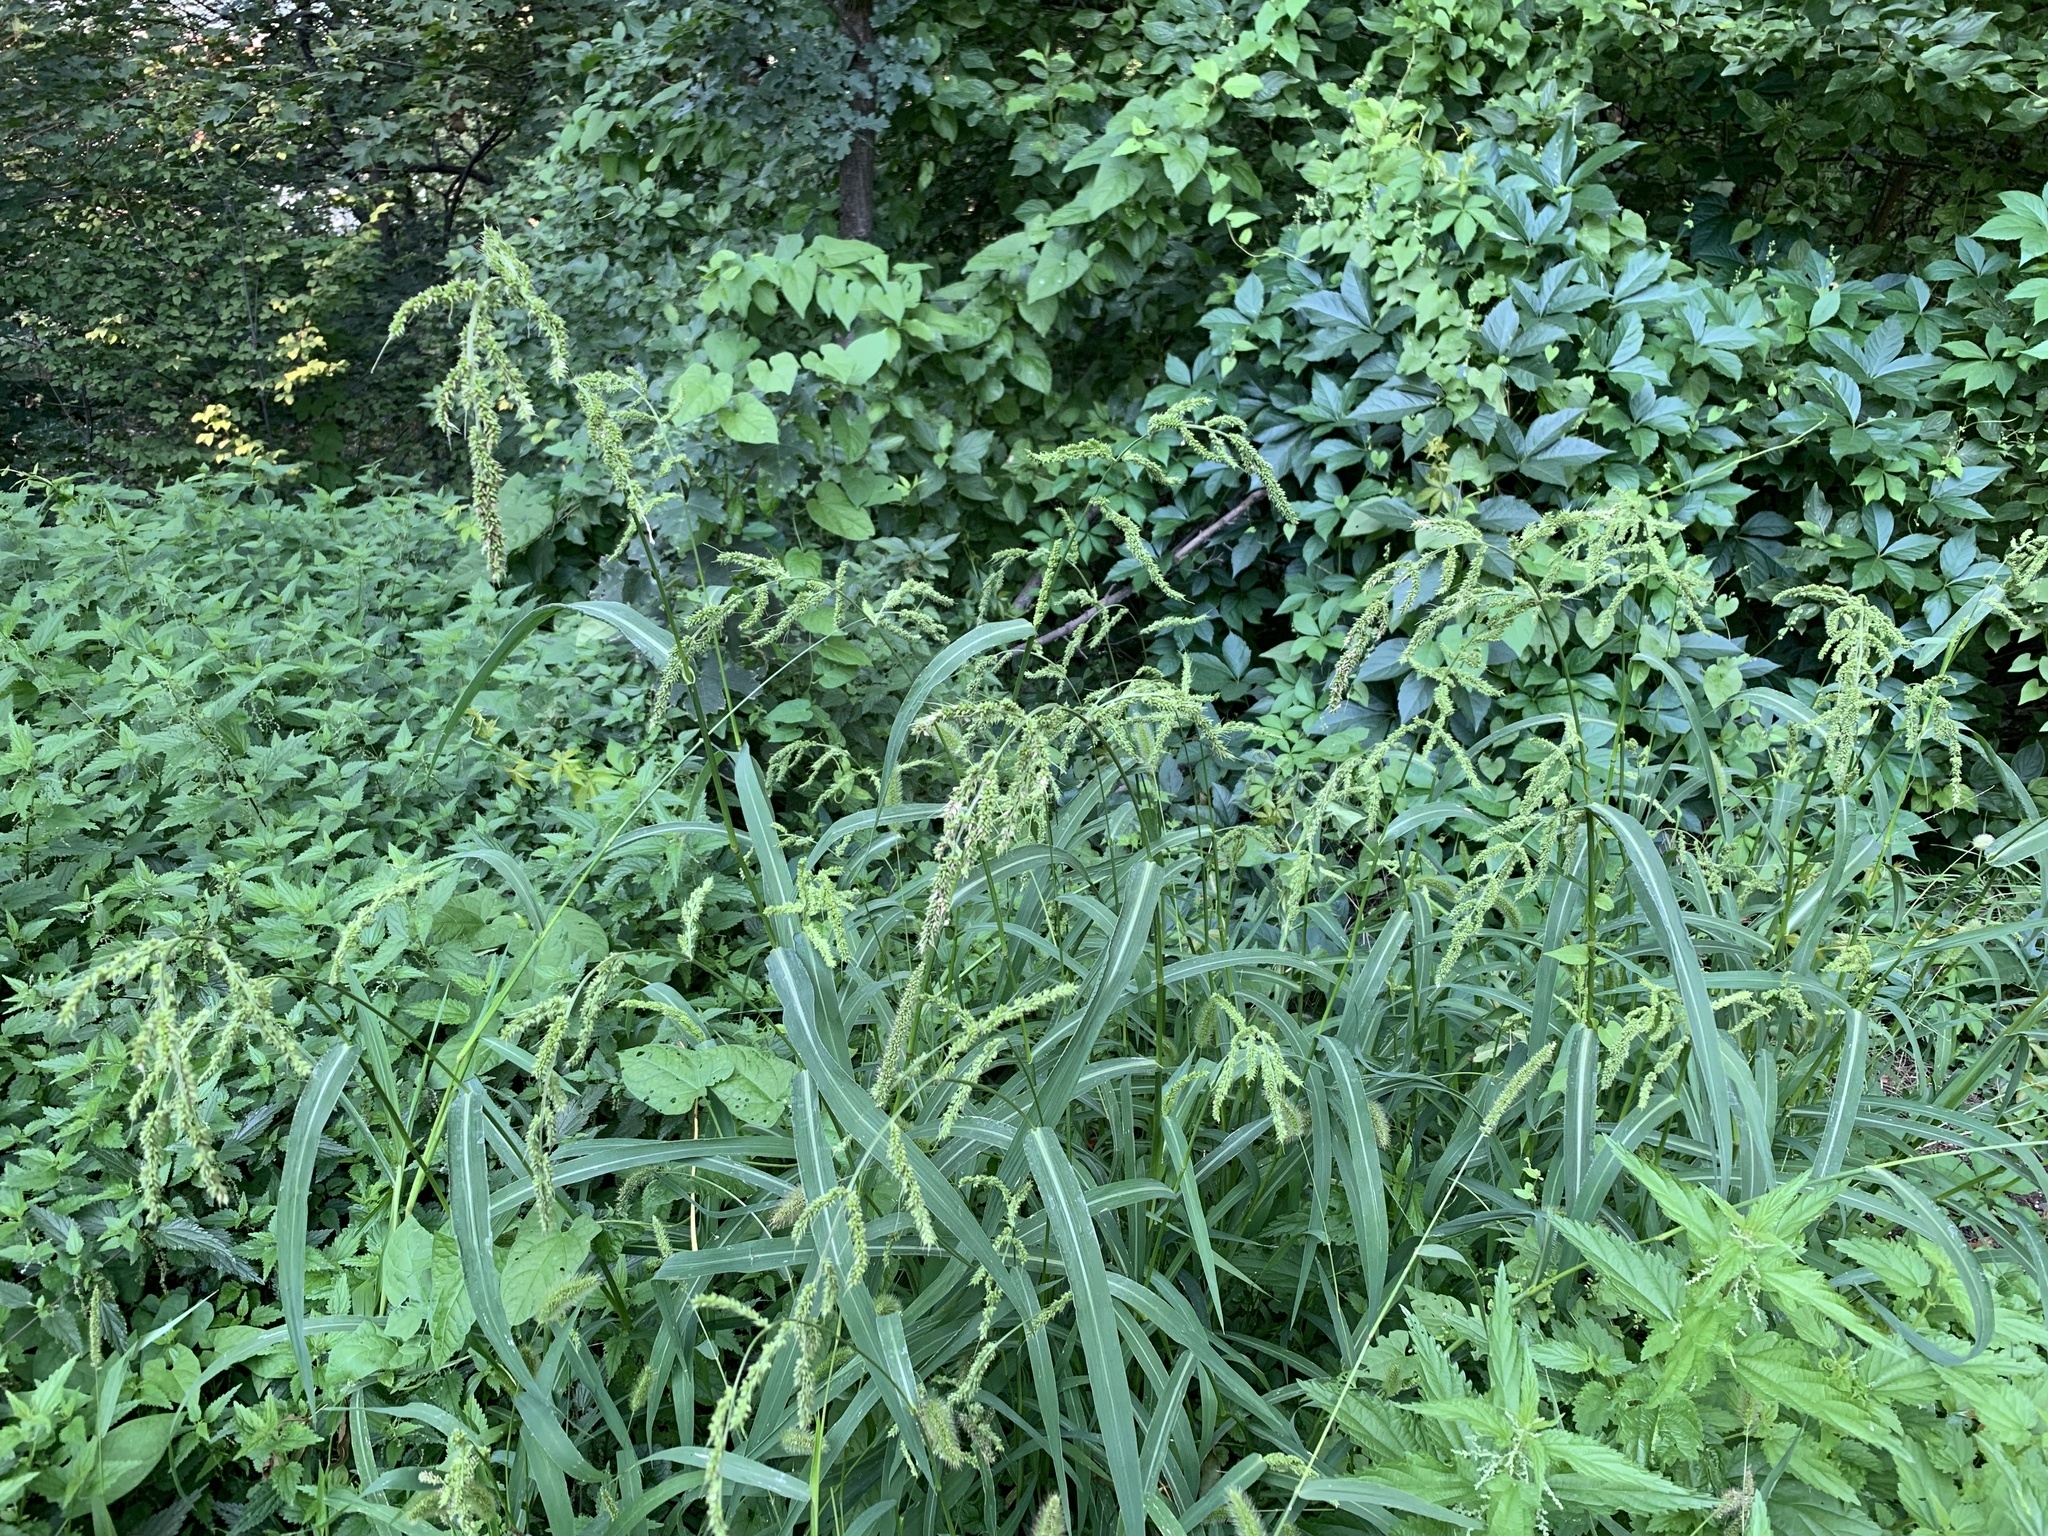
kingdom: Plantae
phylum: Tracheophyta
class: Liliopsida
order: Poales
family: Poaceae
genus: Echinochloa
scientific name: Echinochloa crus-galli
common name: Cockspur
